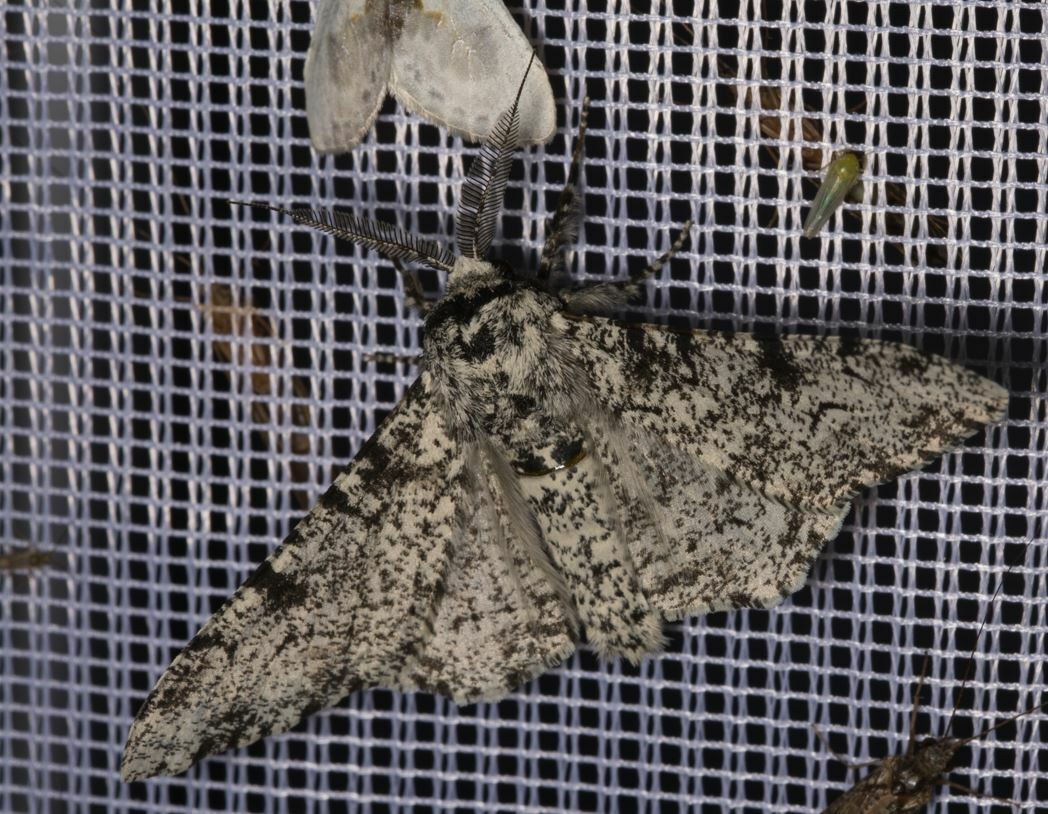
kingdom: Animalia
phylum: Arthropoda
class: Insecta
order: Lepidoptera
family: Geometridae
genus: Biston
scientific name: Biston betularia
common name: Peppered moth
